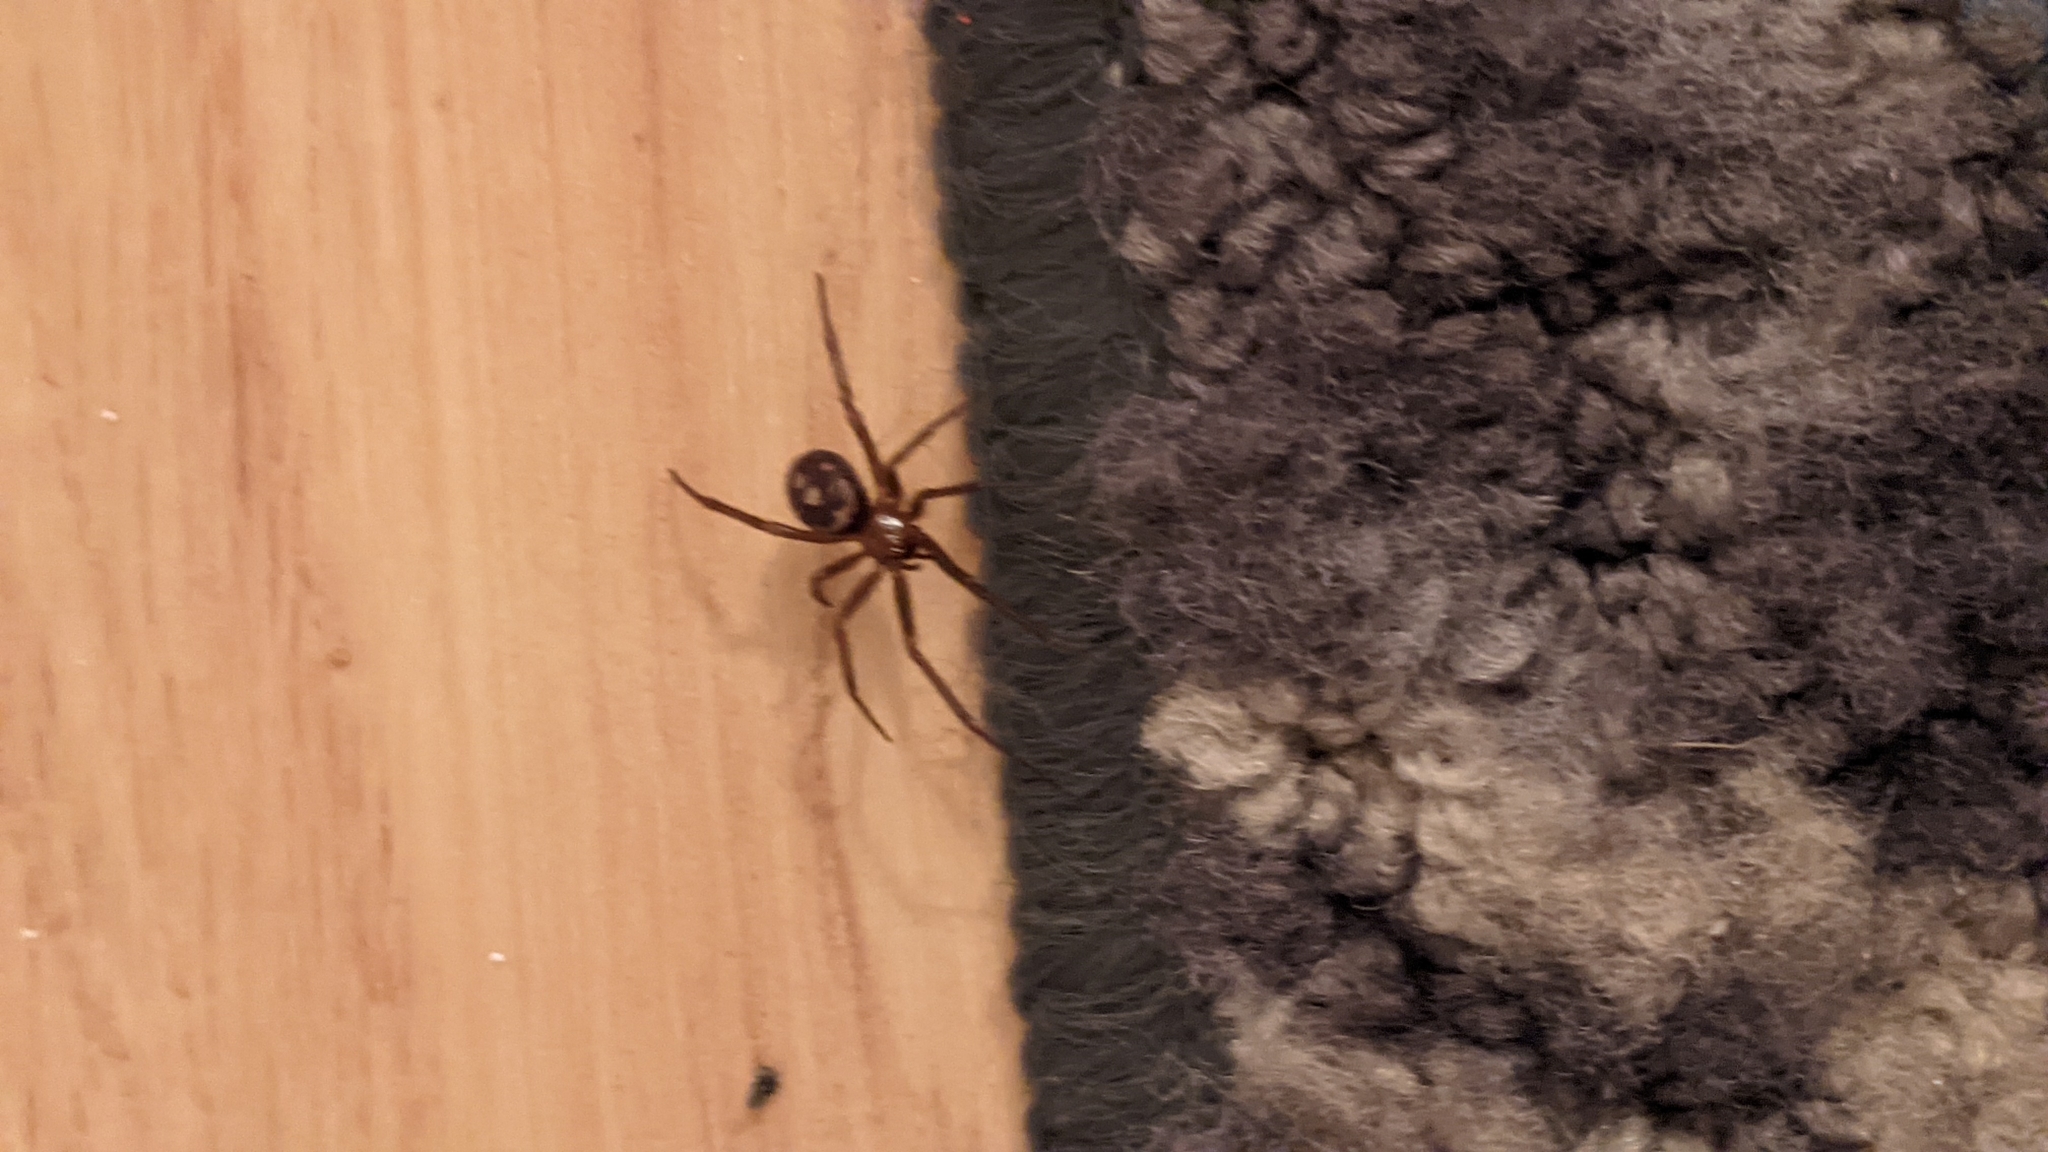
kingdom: Animalia
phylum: Arthropoda
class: Arachnida
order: Araneae
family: Theridiidae
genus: Steatoda
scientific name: Steatoda grossa
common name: False black widow
